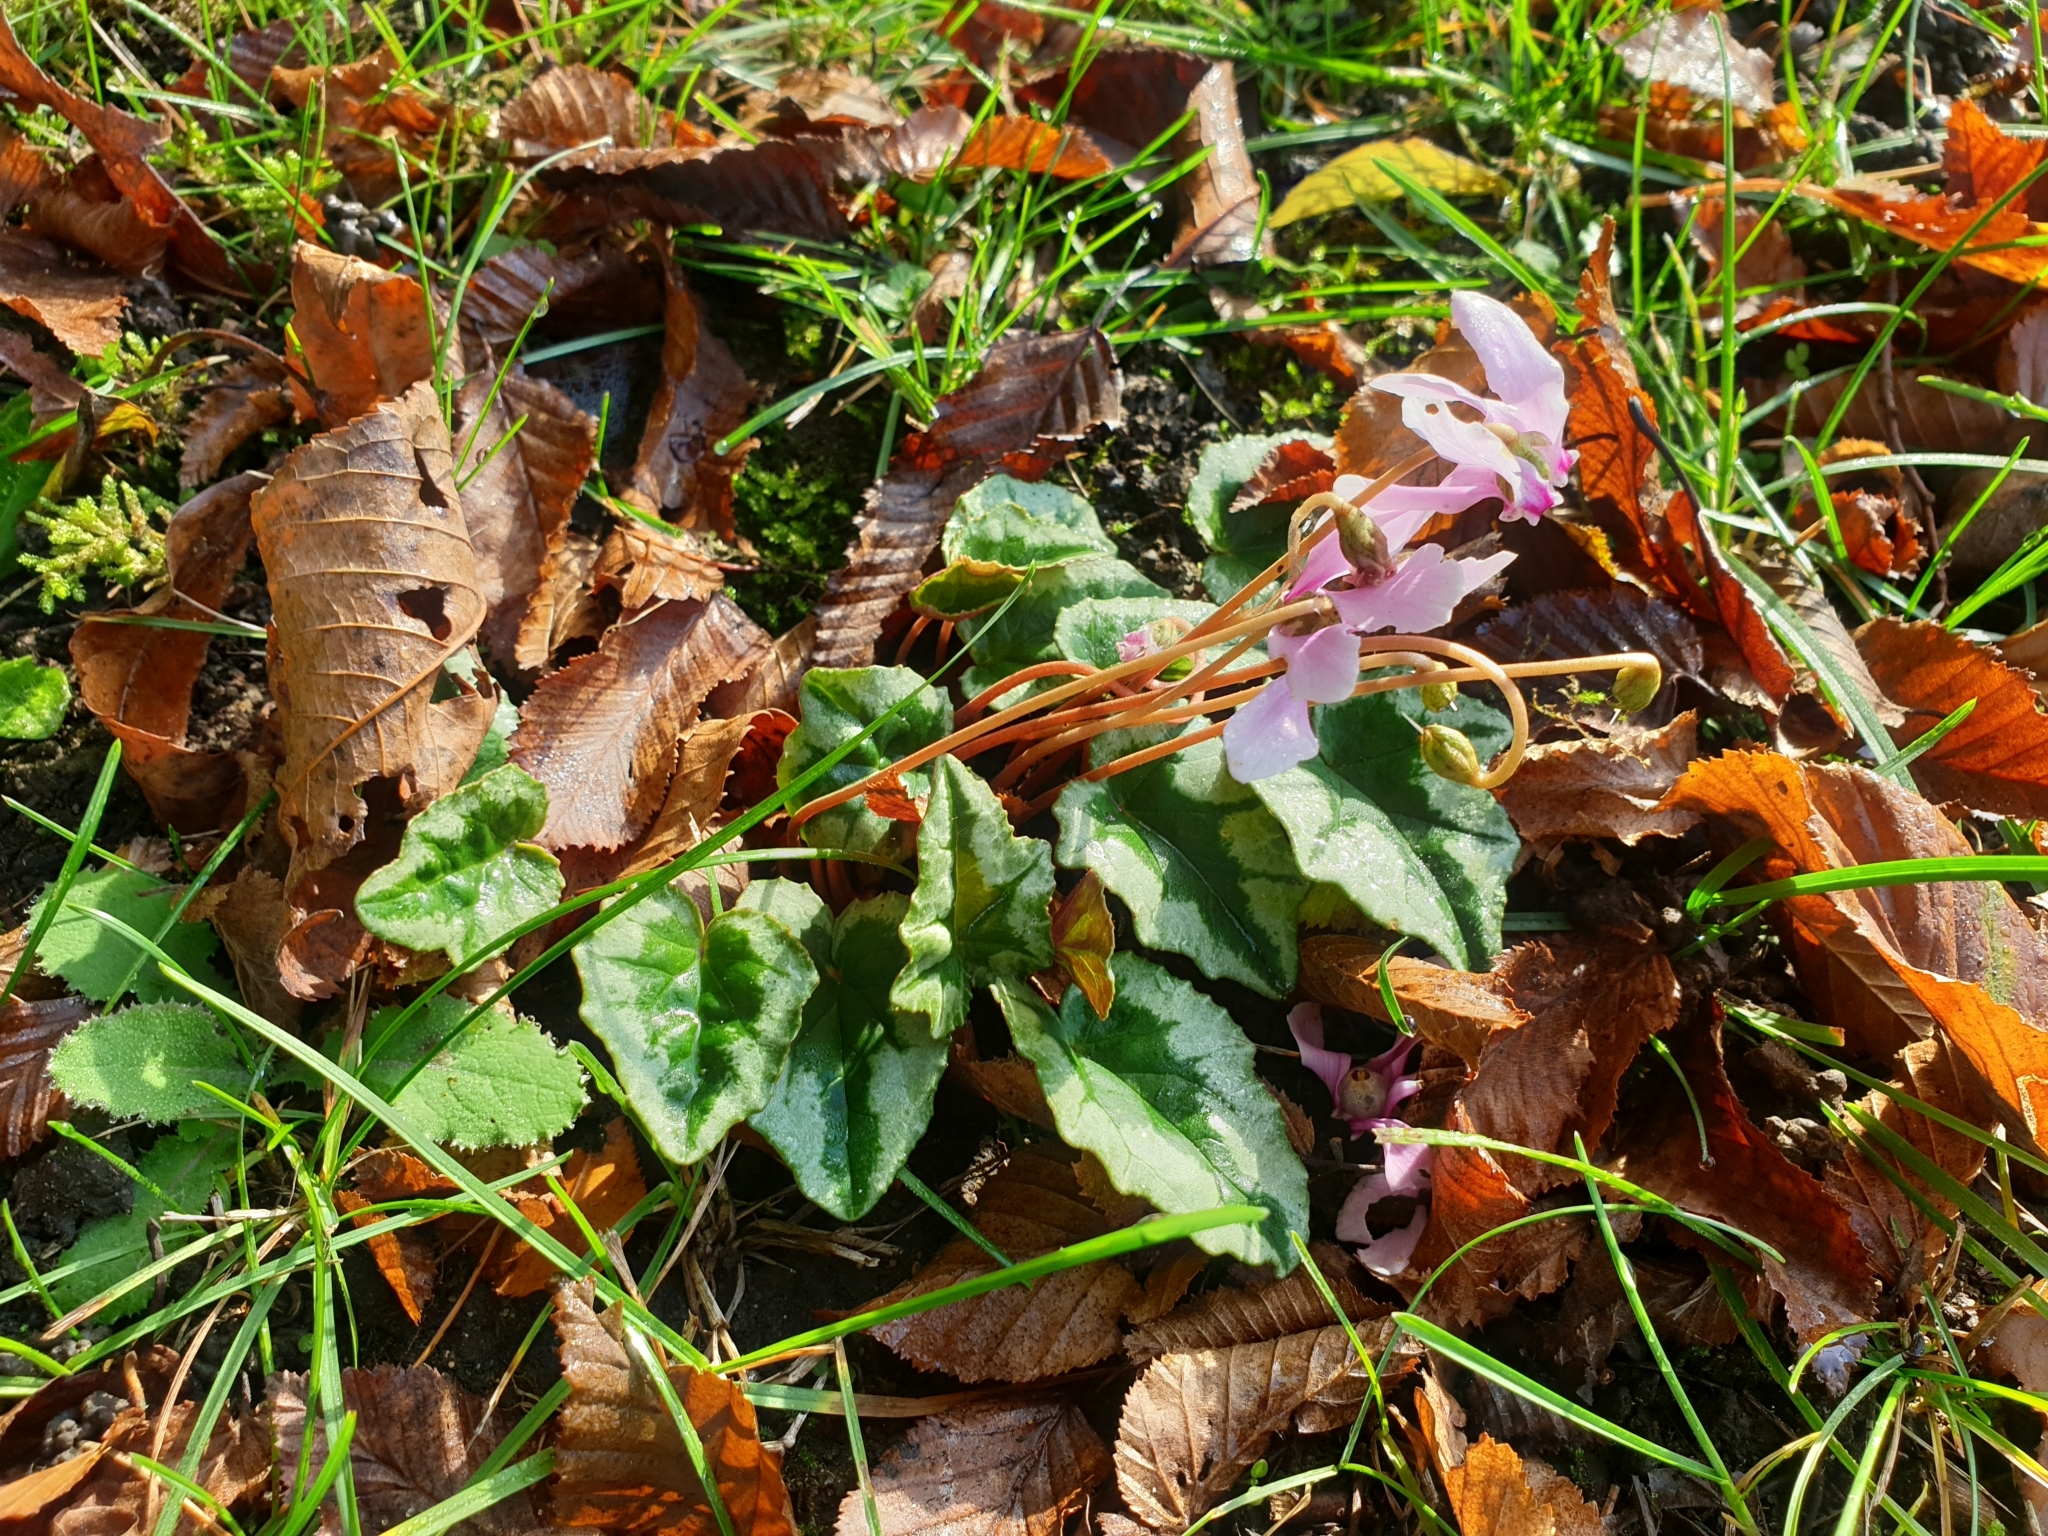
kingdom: Plantae
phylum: Tracheophyta
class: Magnoliopsida
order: Ericales
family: Primulaceae
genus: Cyclamen
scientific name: Cyclamen hederifolium
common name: Sowbread
